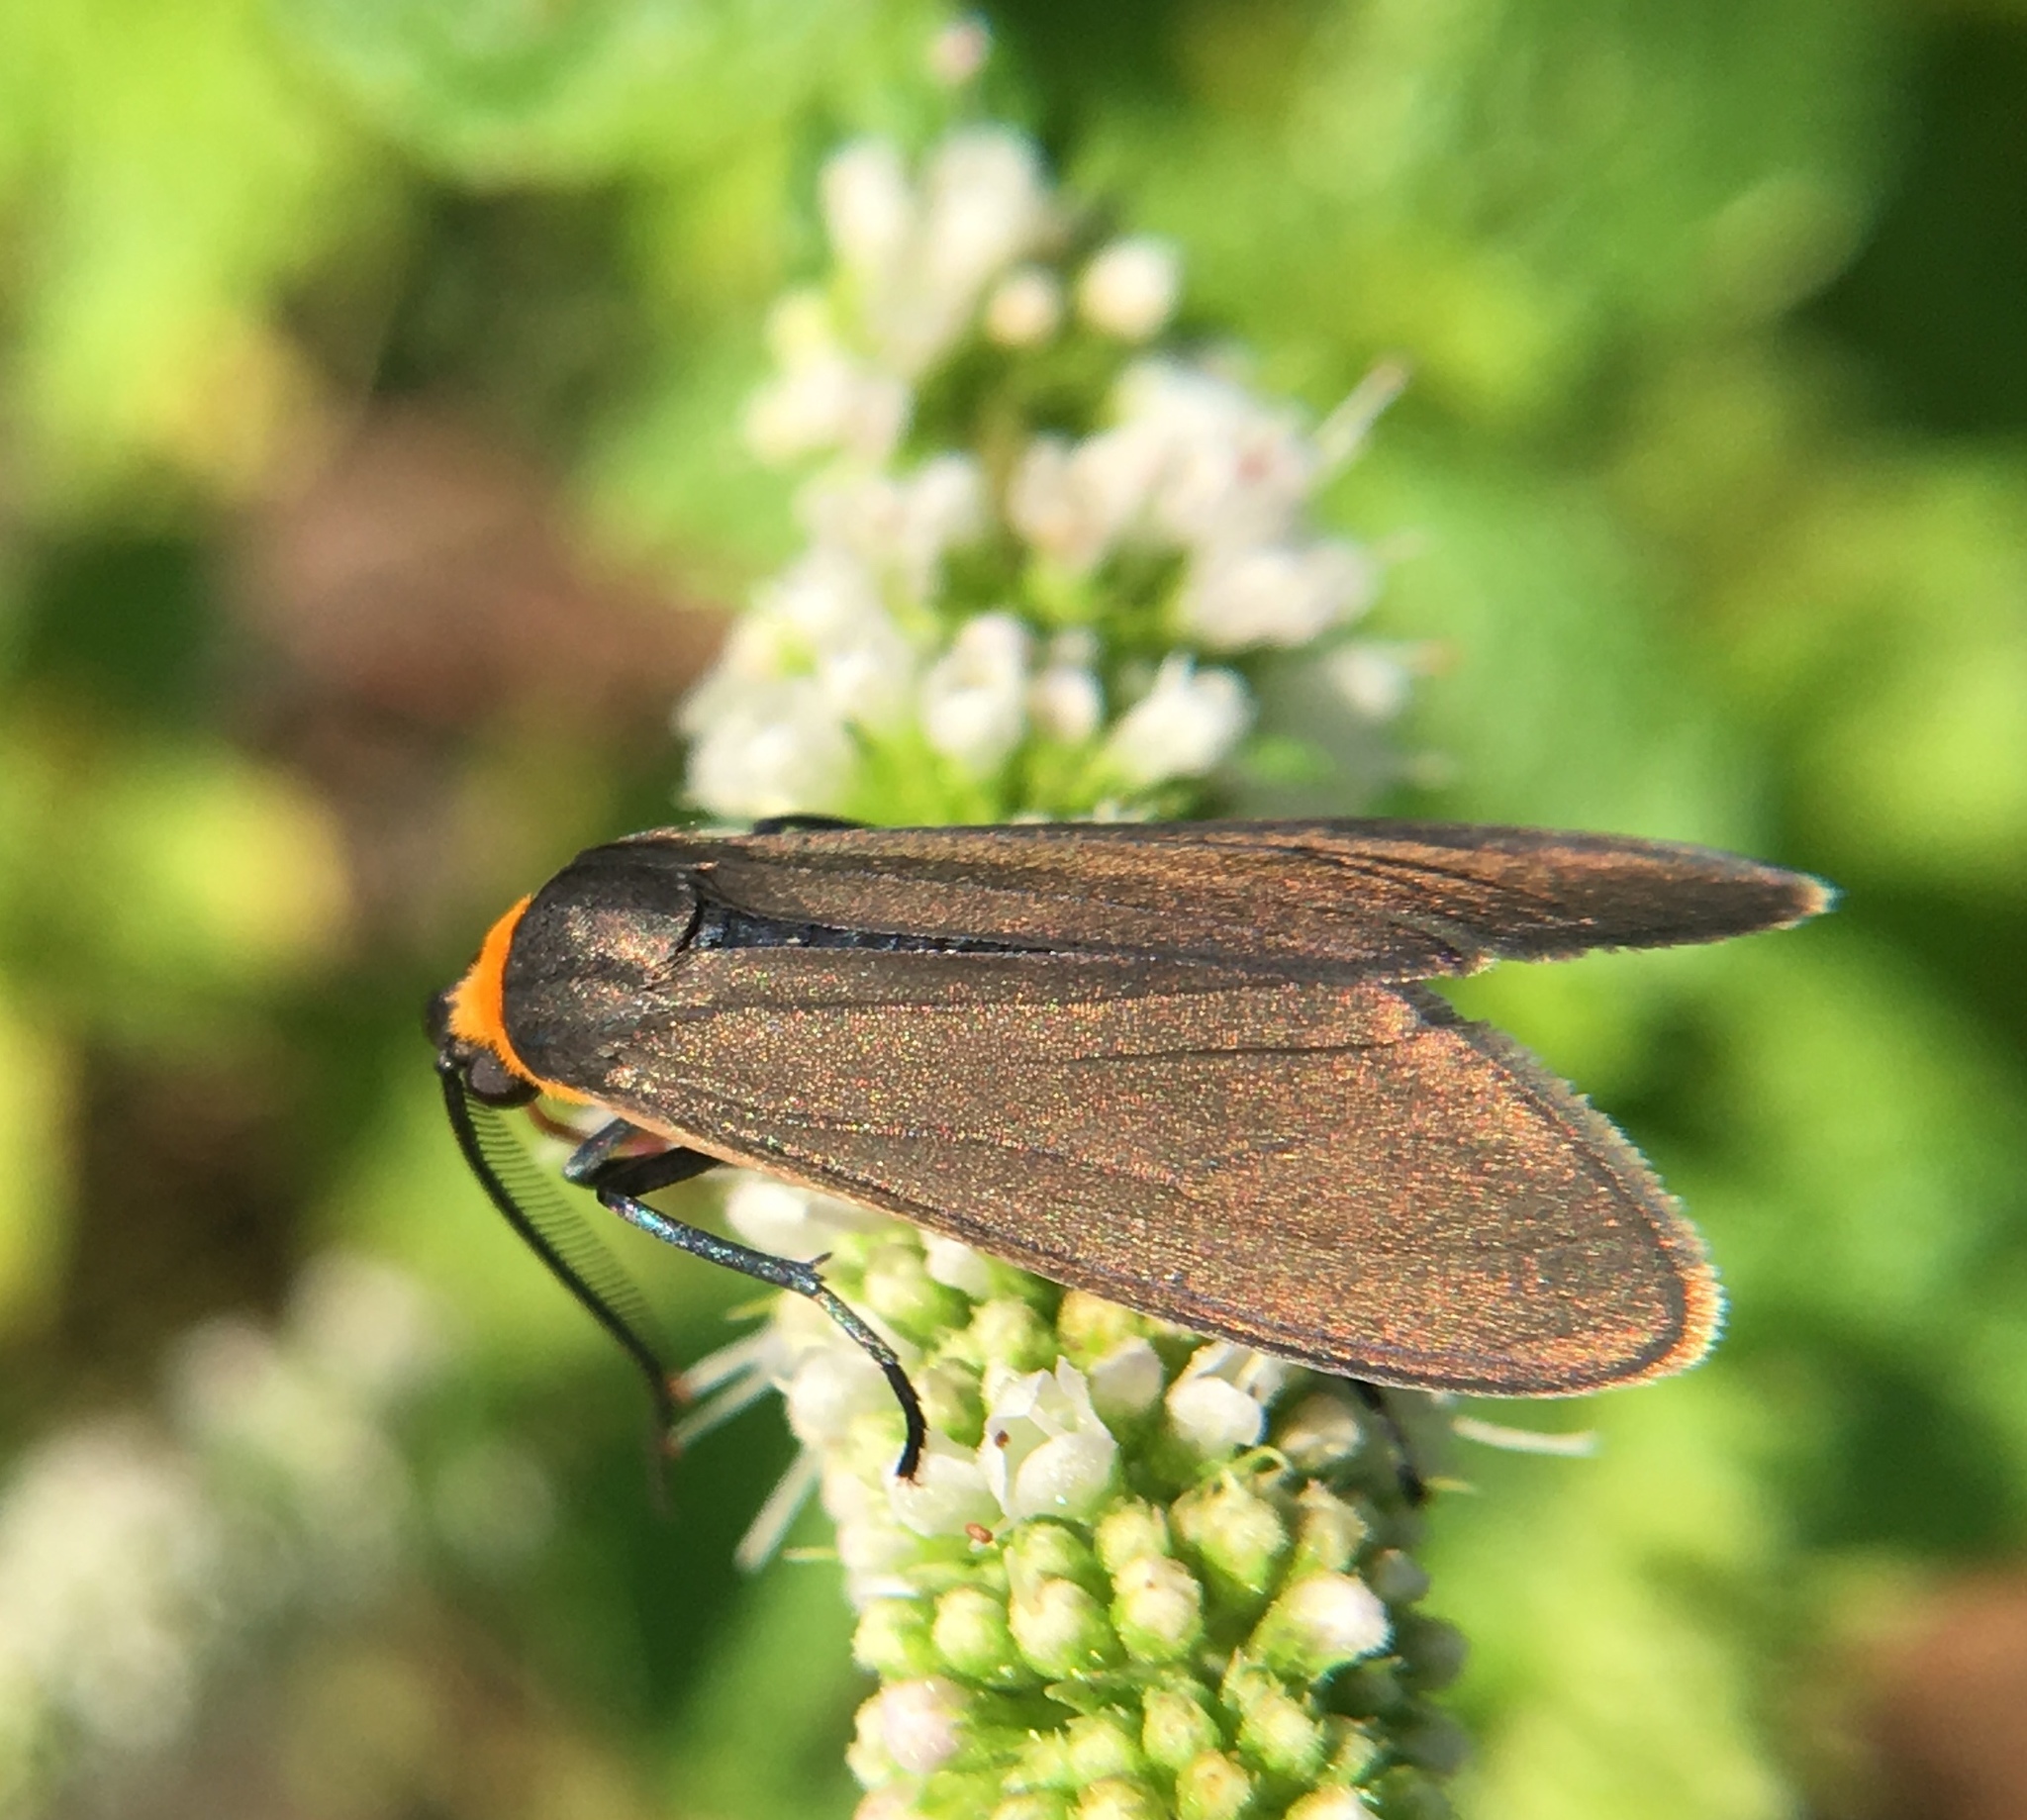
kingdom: Animalia
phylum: Arthropoda
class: Insecta
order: Lepidoptera
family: Erebidae
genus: Cisseps
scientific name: Cisseps fulvicollis
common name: Yellow-collared scape moth
